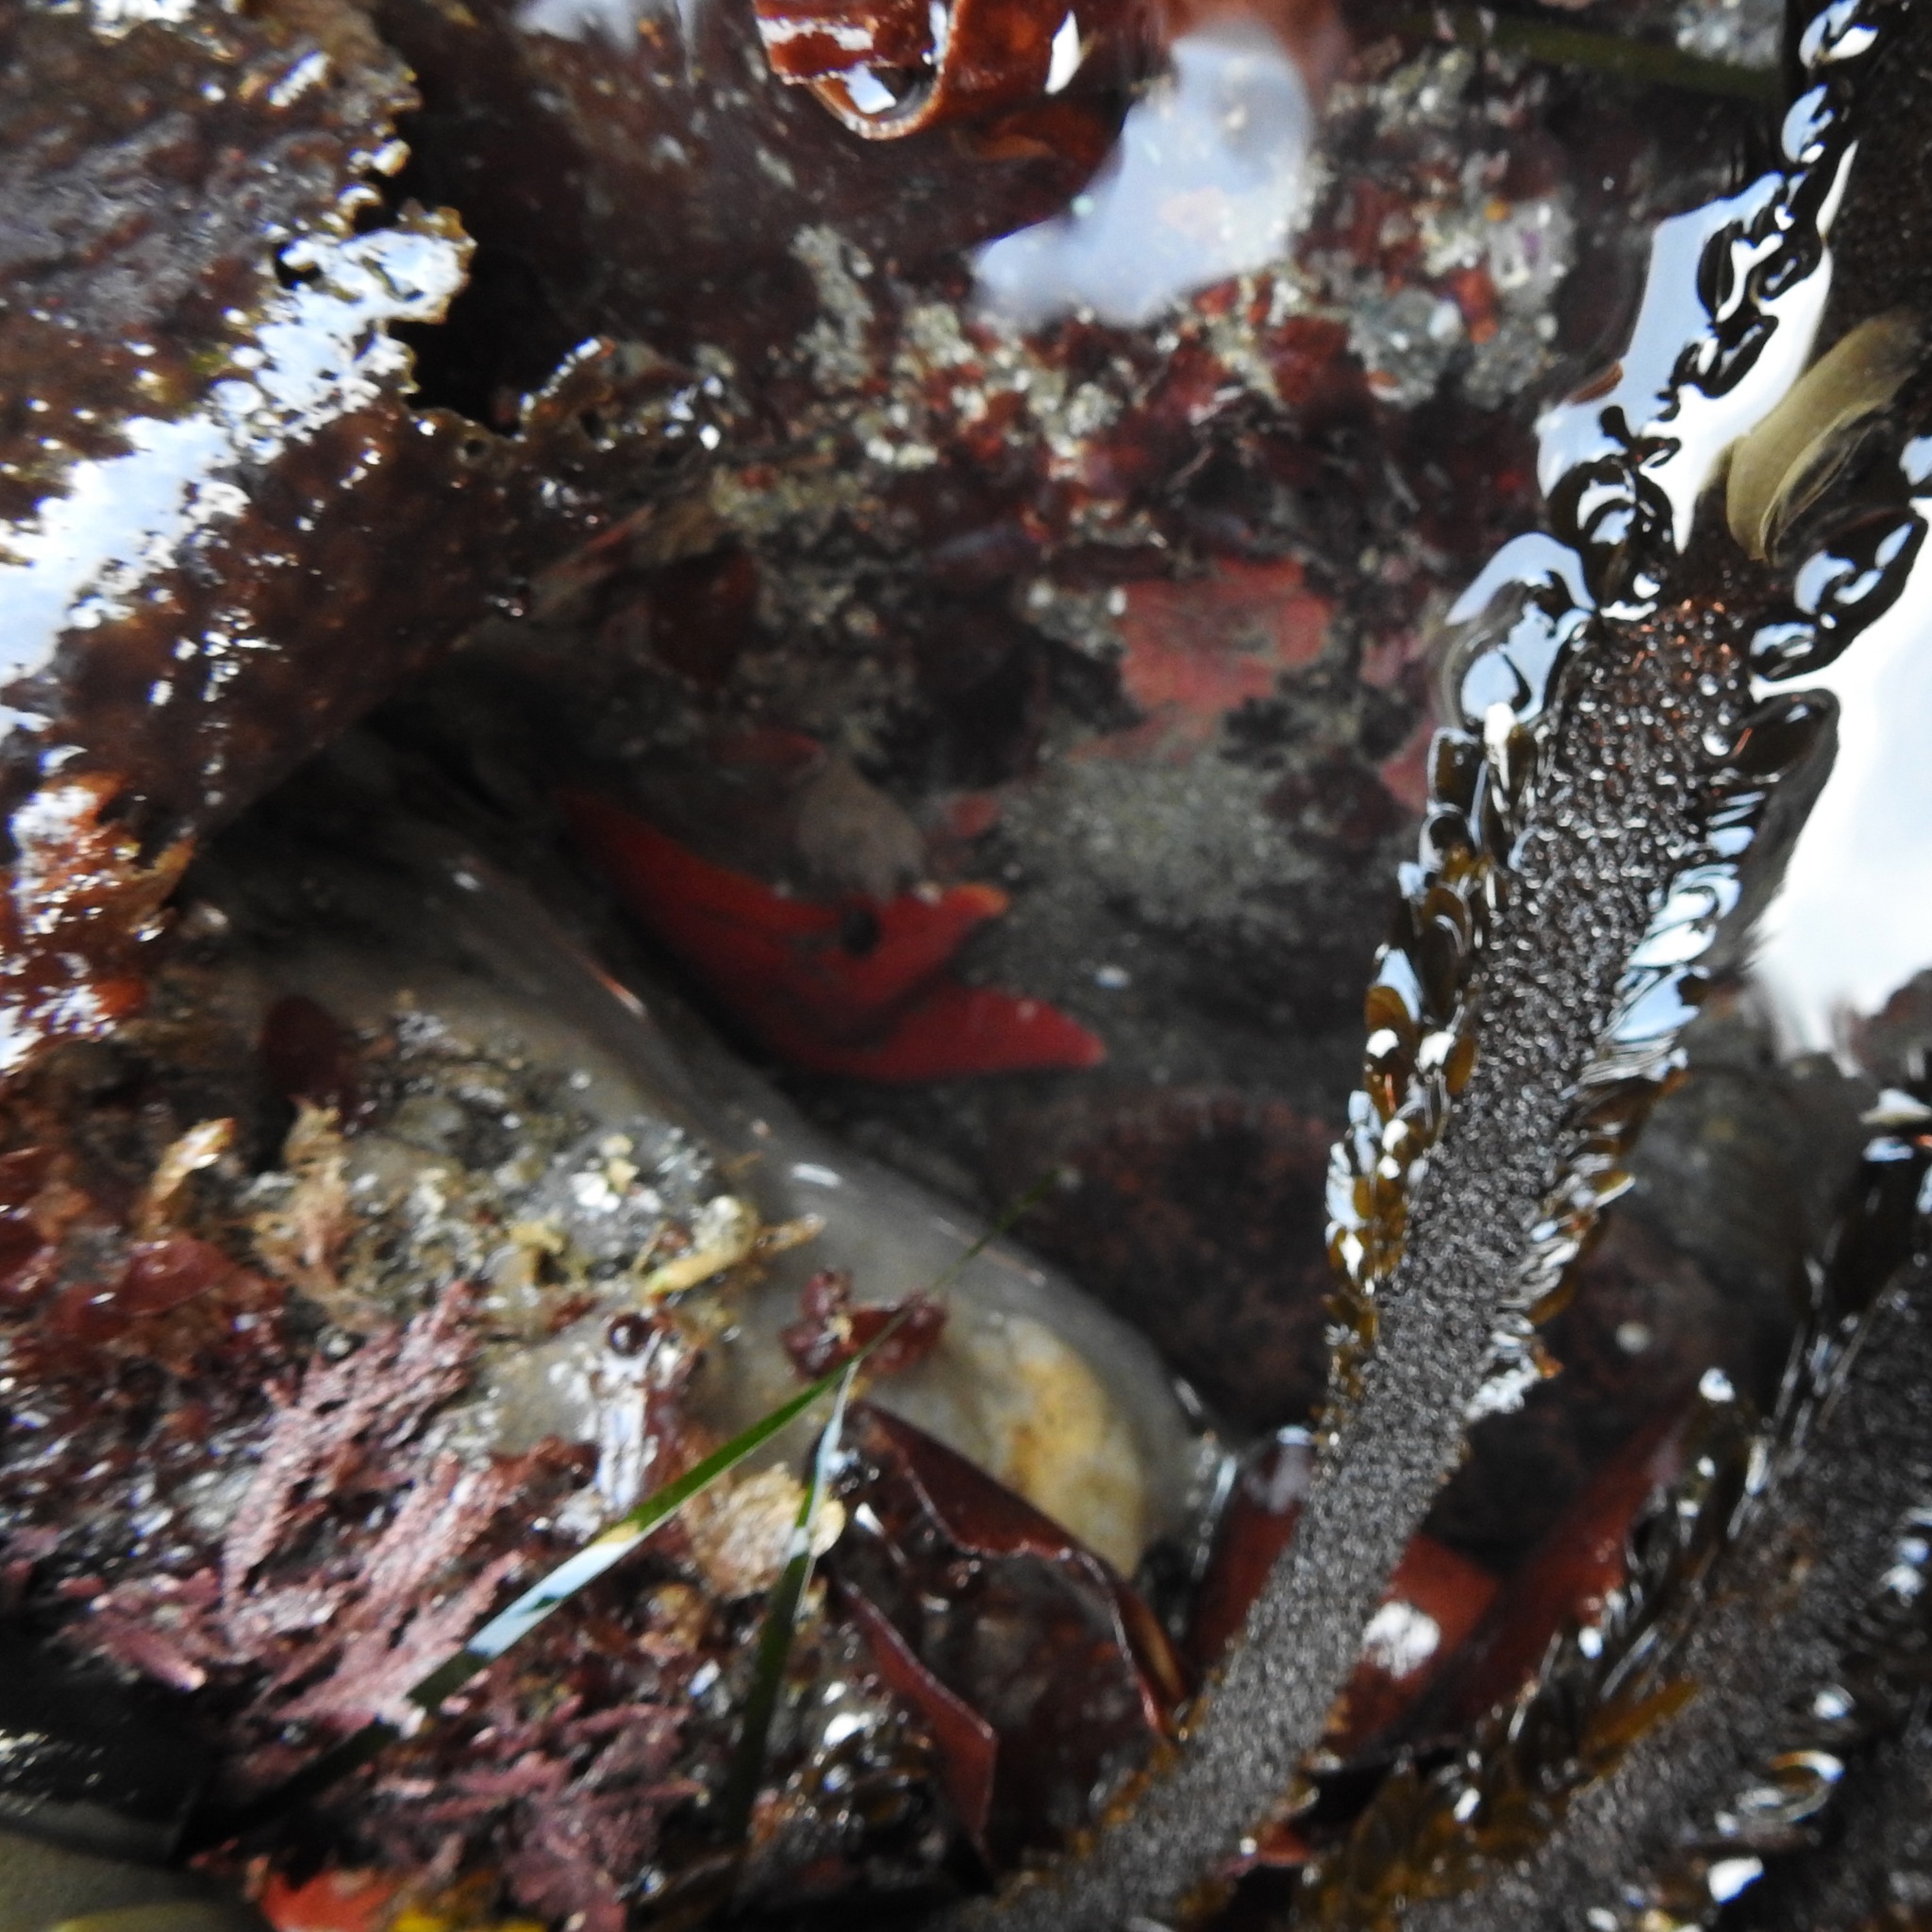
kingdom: Chromista
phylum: Ochrophyta
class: Phaeophyceae
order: Laminariales
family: Lessoniaceae
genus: Egregia
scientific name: Egregia menziesii
